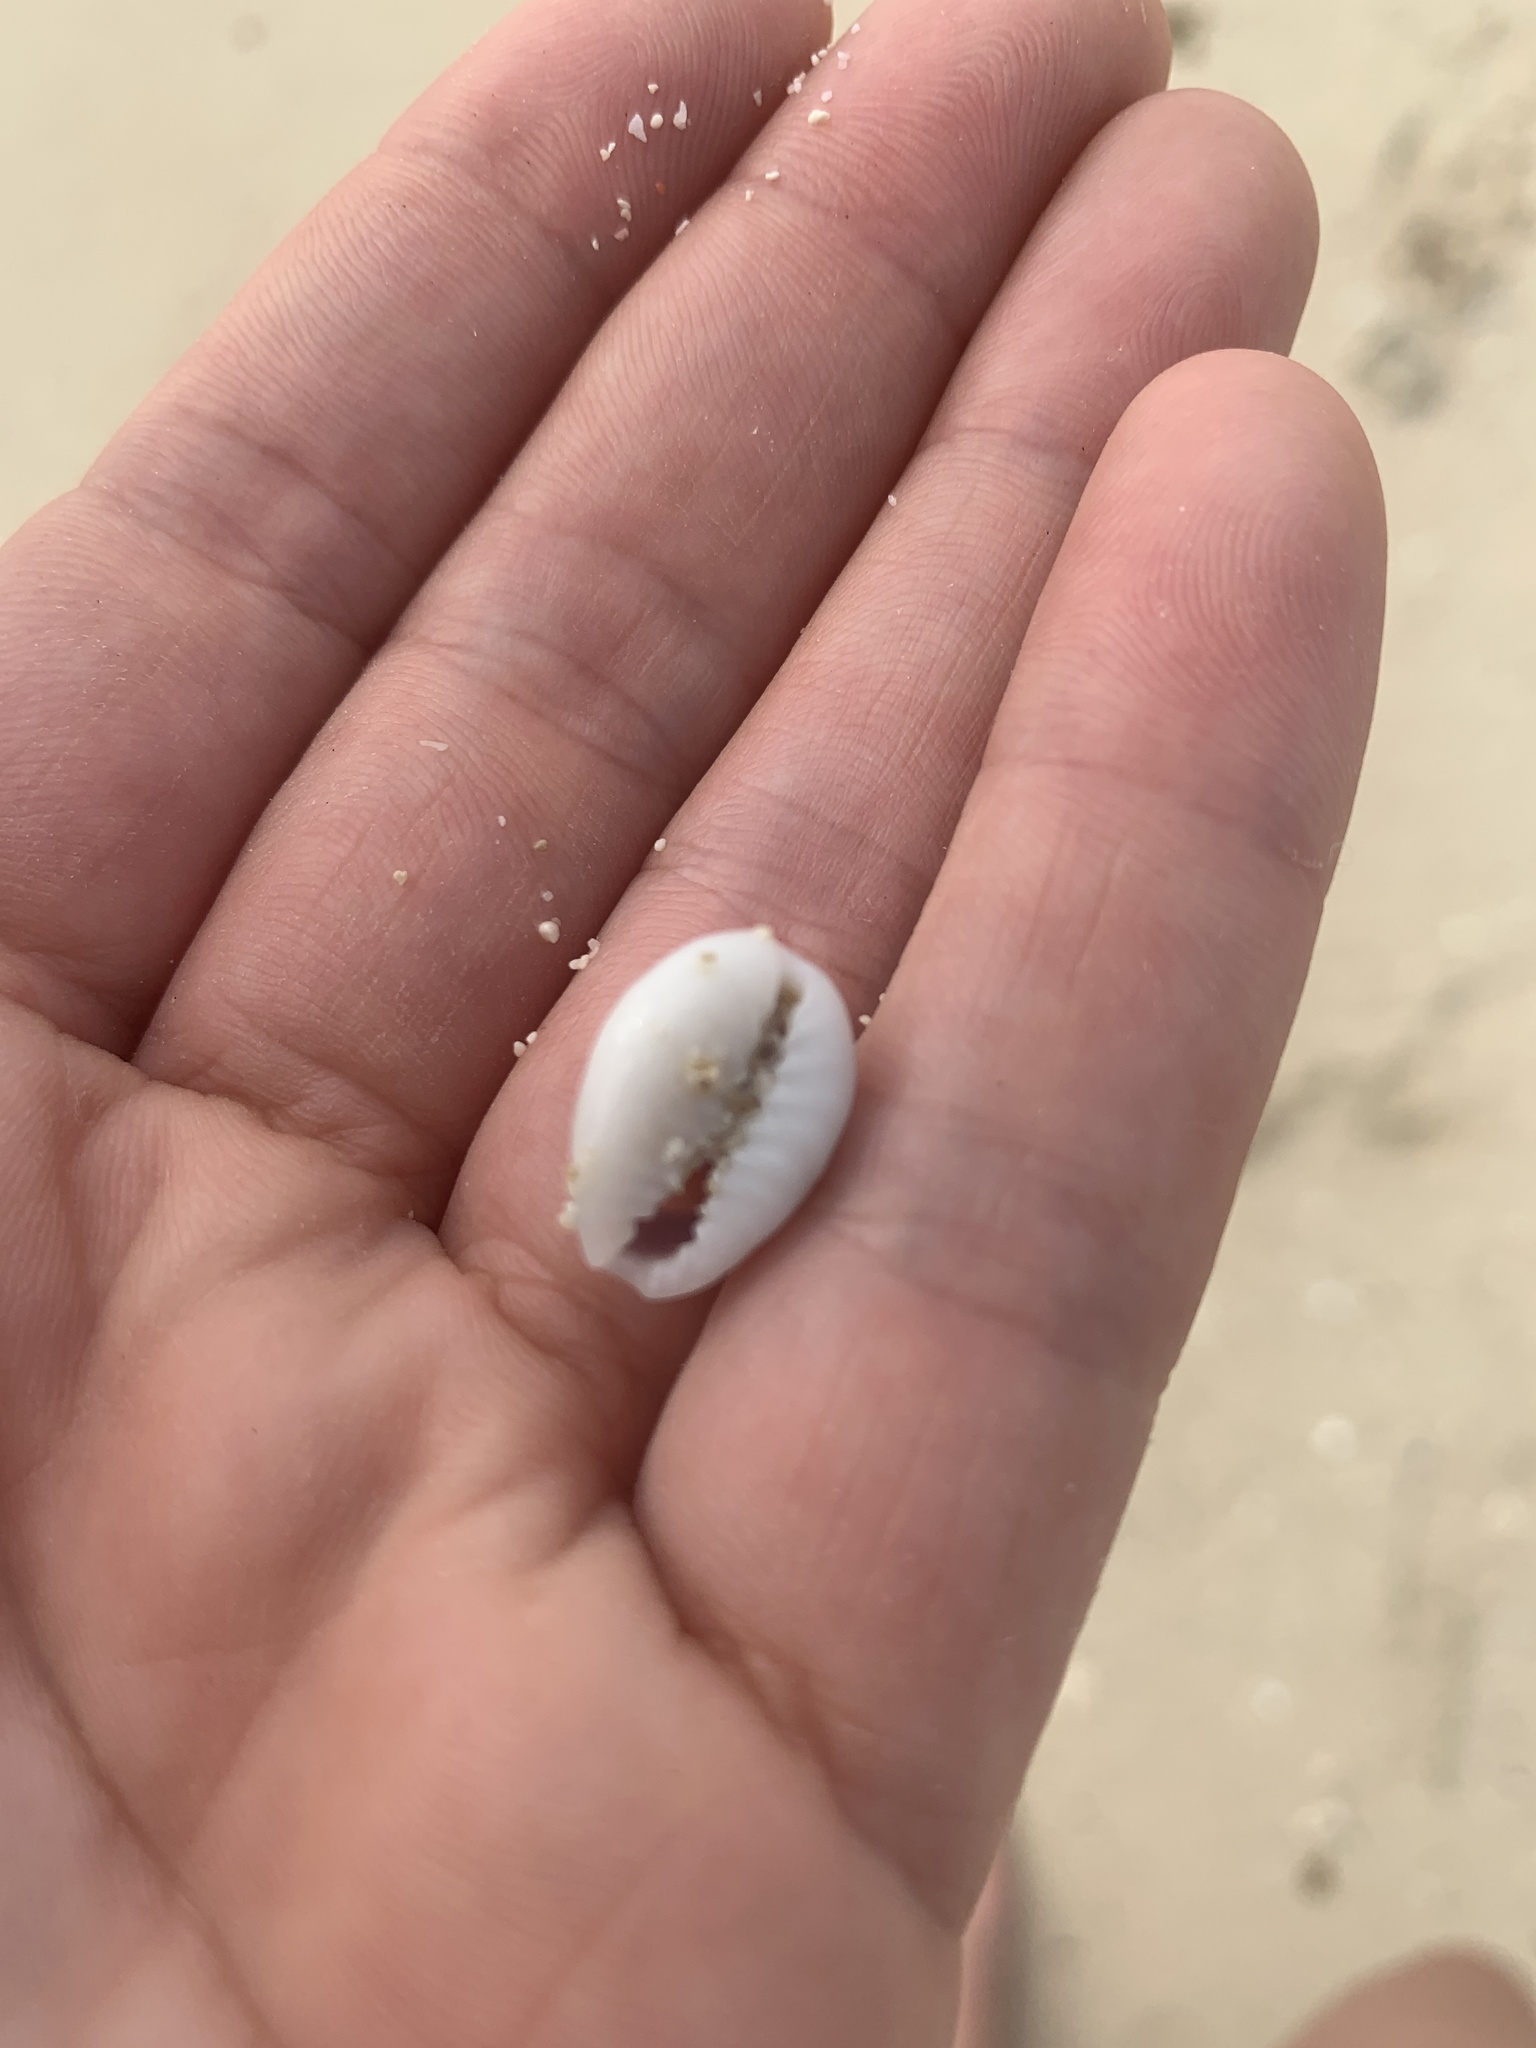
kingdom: Animalia
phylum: Mollusca
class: Gastropoda
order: Littorinimorpha
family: Cypraeidae
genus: Monetaria
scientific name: Monetaria annulus
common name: Ring cowrie
